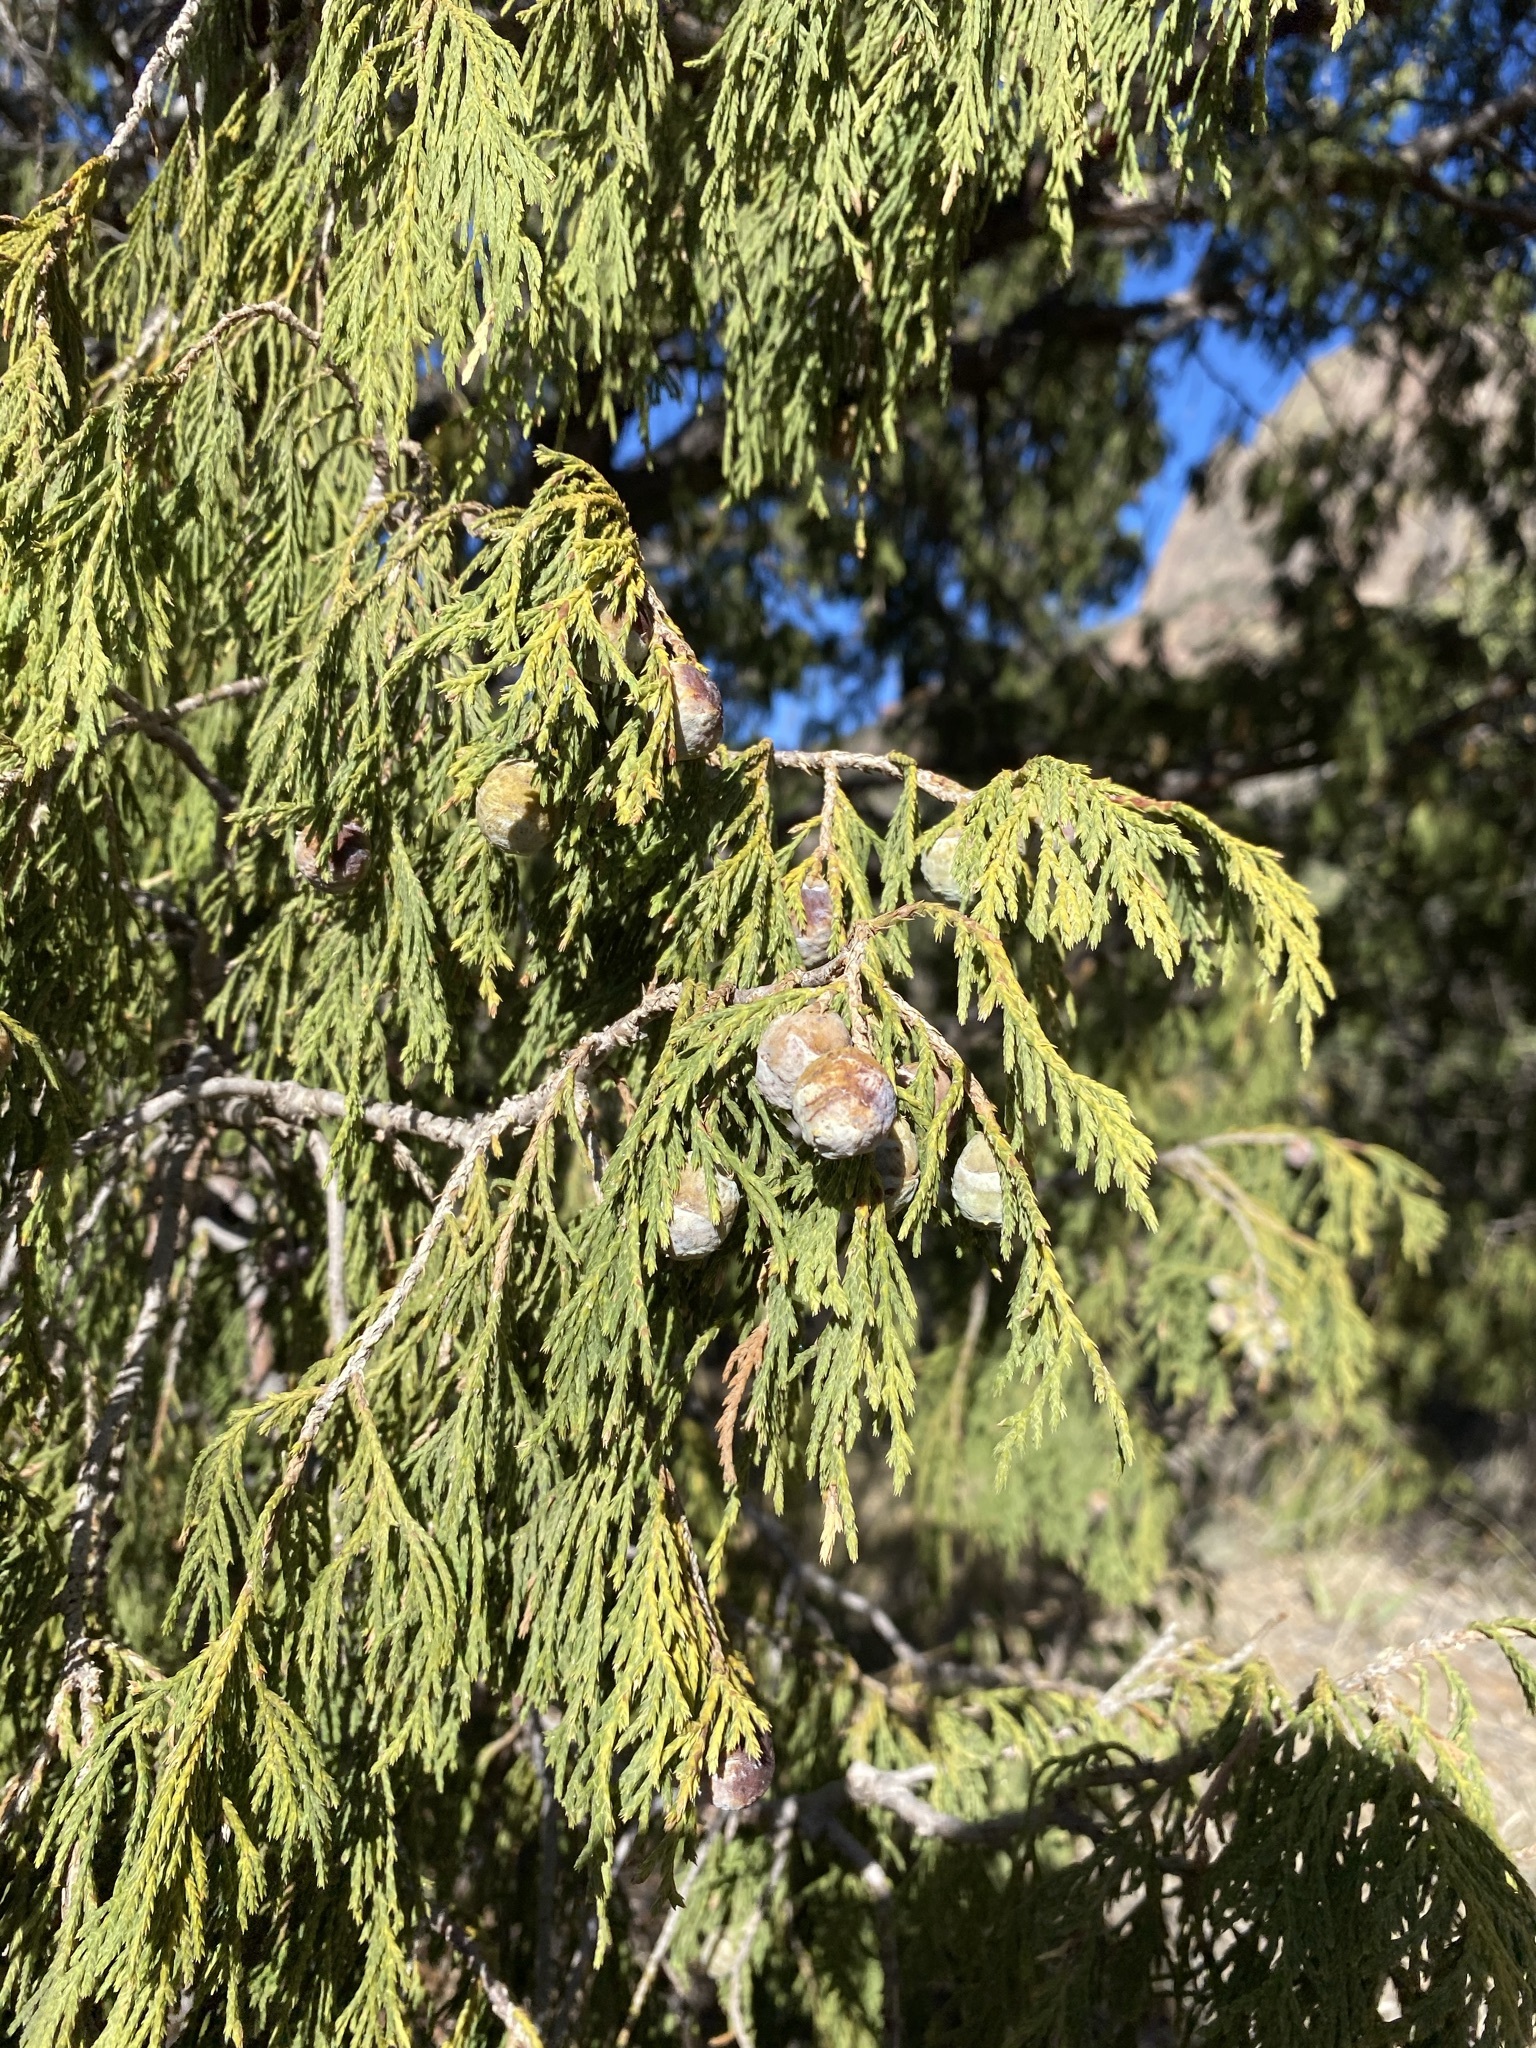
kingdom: Plantae
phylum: Tracheophyta
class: Pinopsida
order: Pinales
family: Cupressaceae
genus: Juniperus
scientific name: Juniperus flaccida
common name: Drooping juniper
